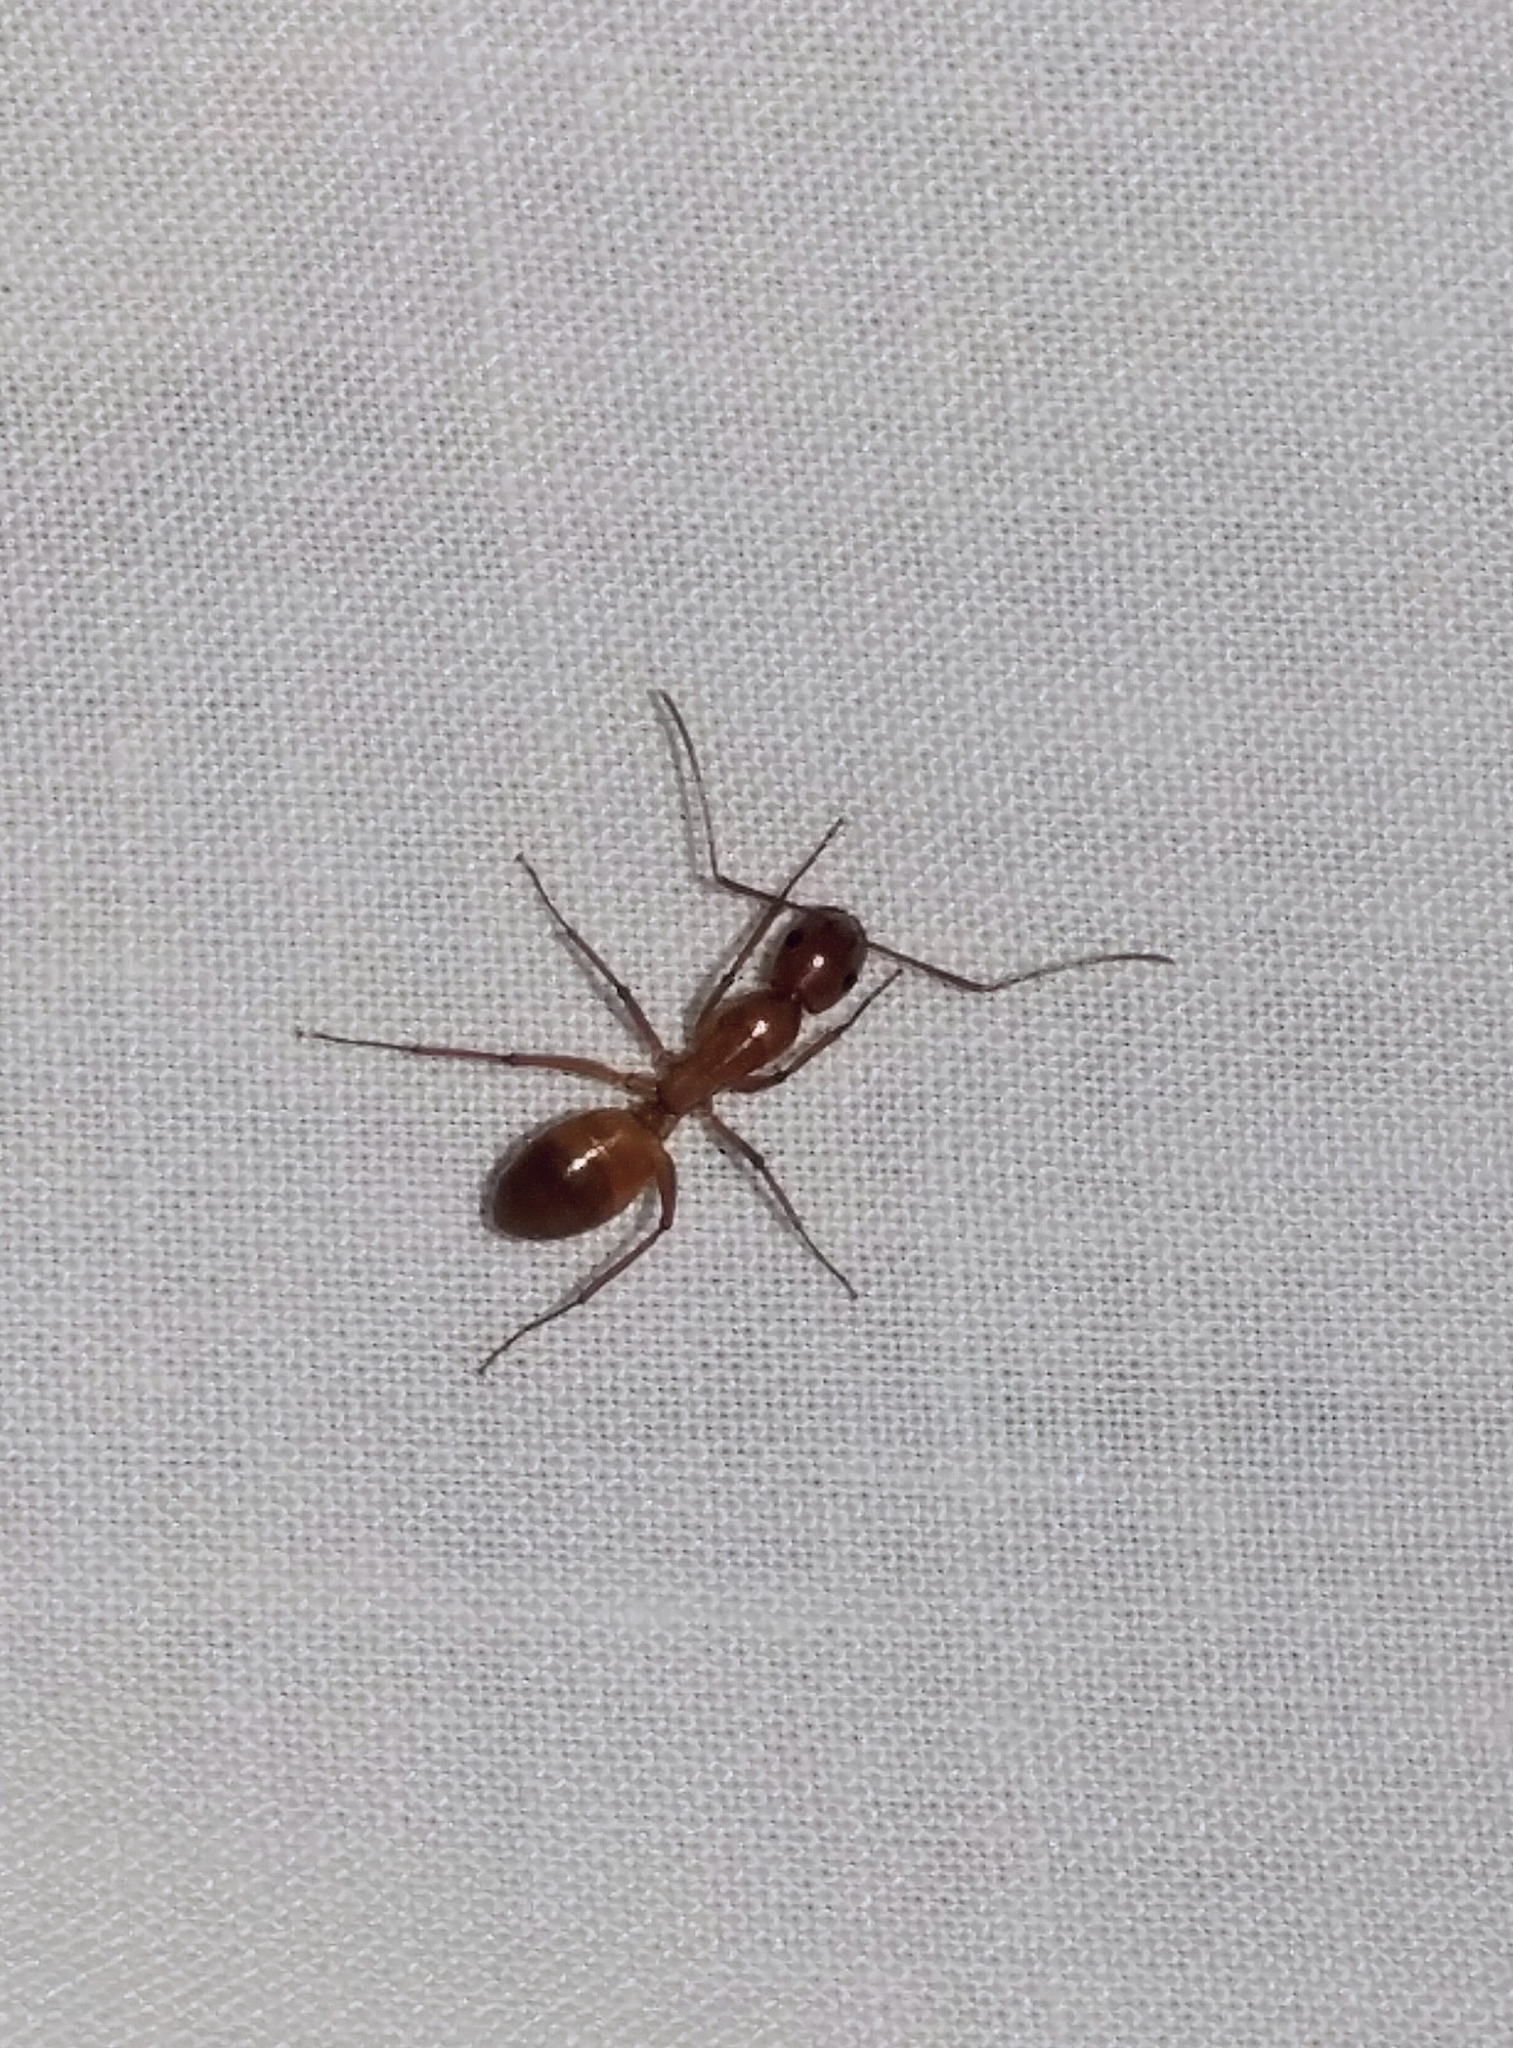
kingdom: Animalia
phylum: Arthropoda
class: Insecta
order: Hymenoptera
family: Formicidae
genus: Camponotus
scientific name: Camponotus castaneus
